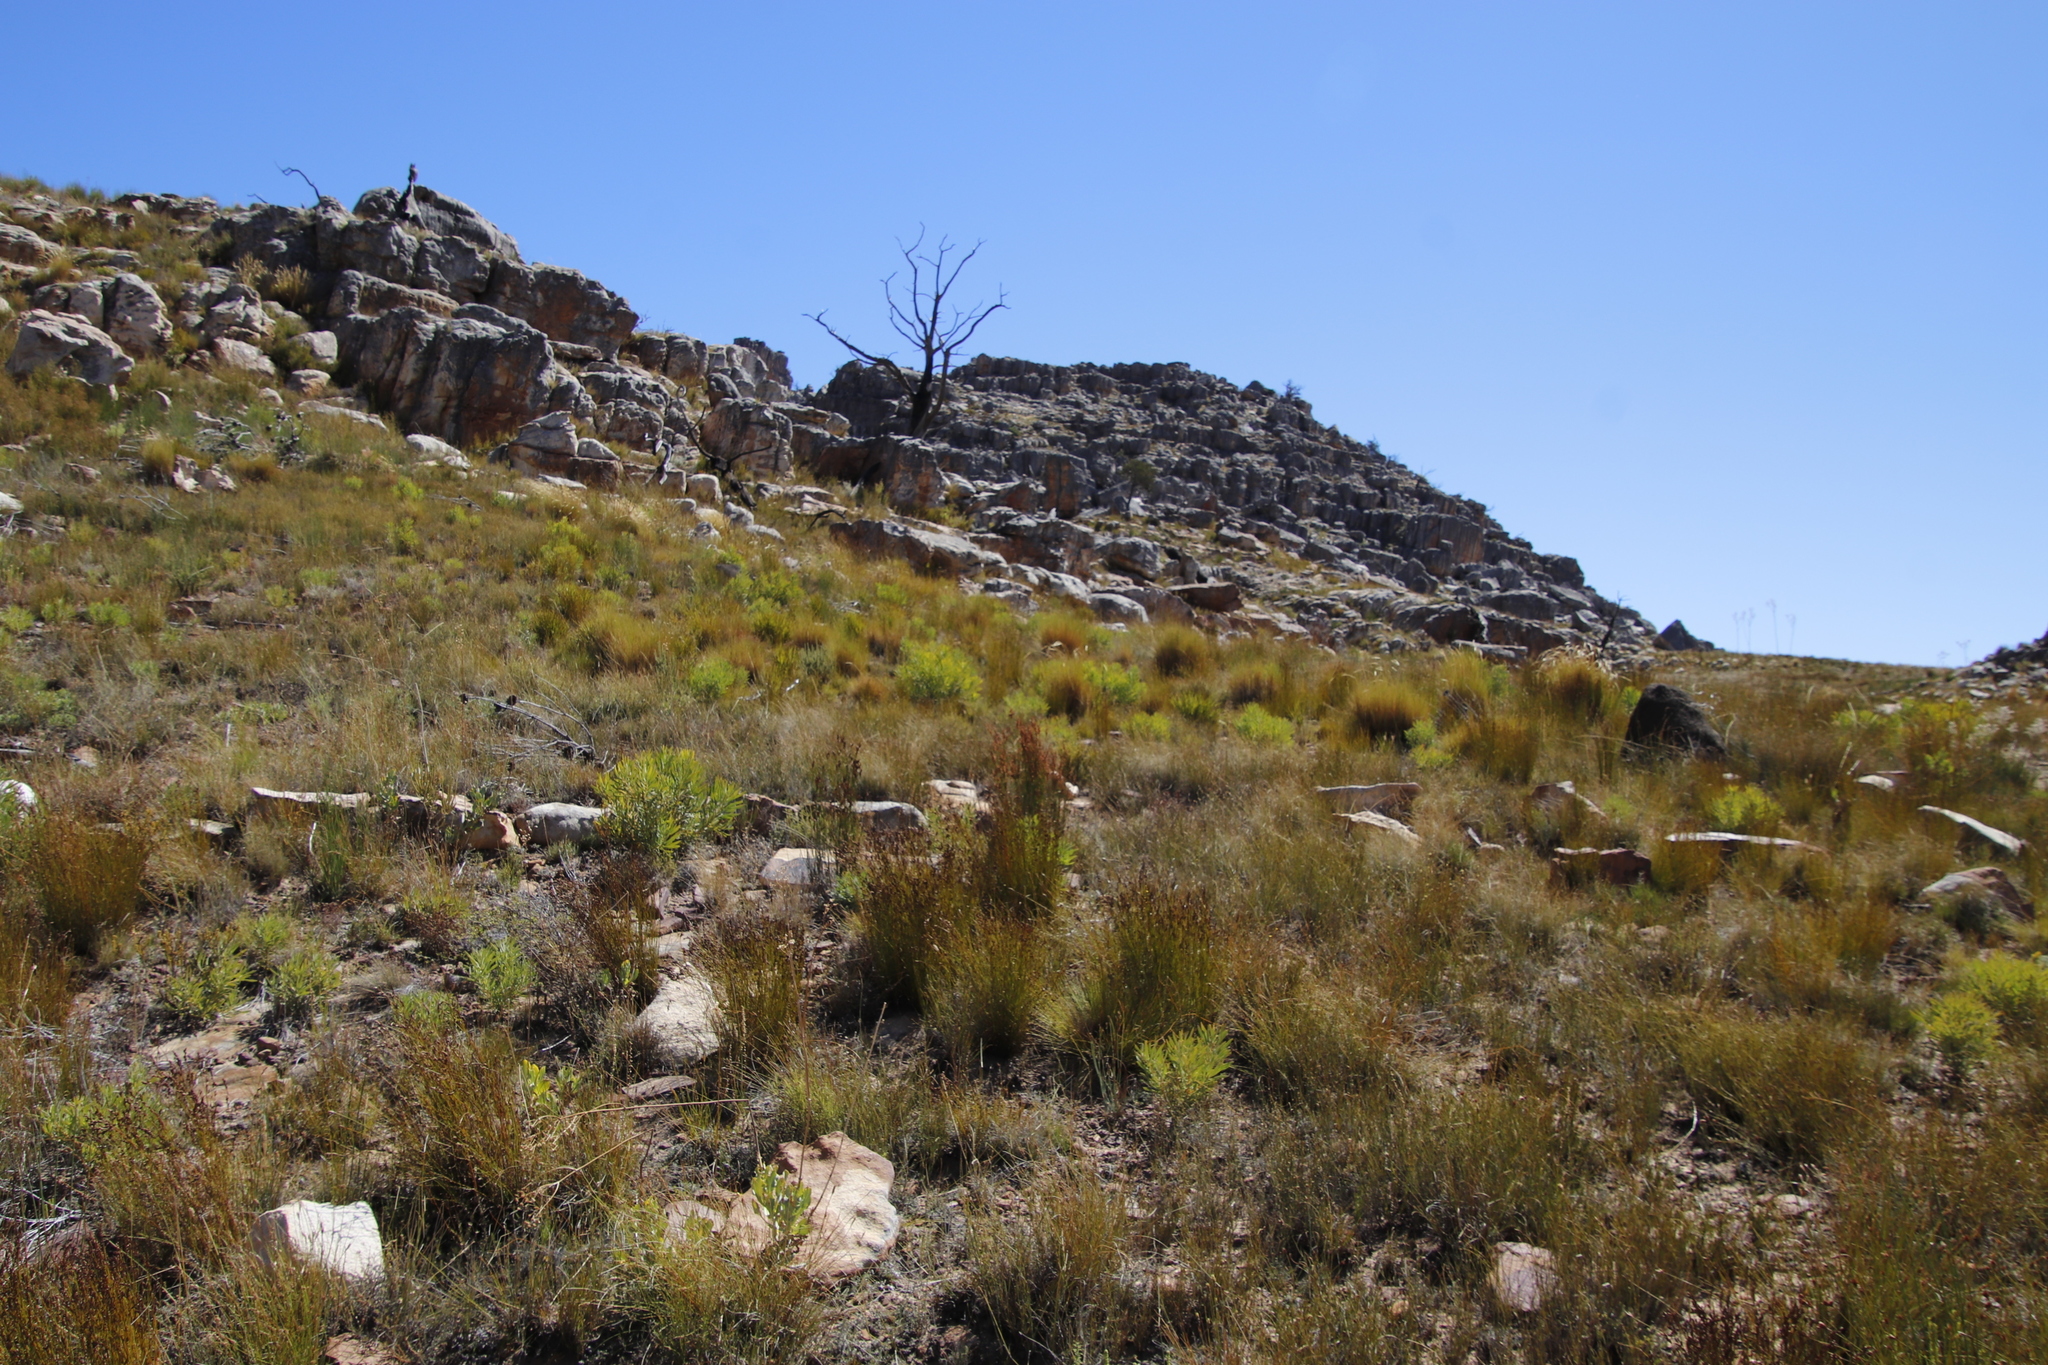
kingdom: Plantae
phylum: Tracheophyta
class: Magnoliopsida
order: Proteales
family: Proteaceae
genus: Protea
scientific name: Protea repens
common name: Sugarbush
